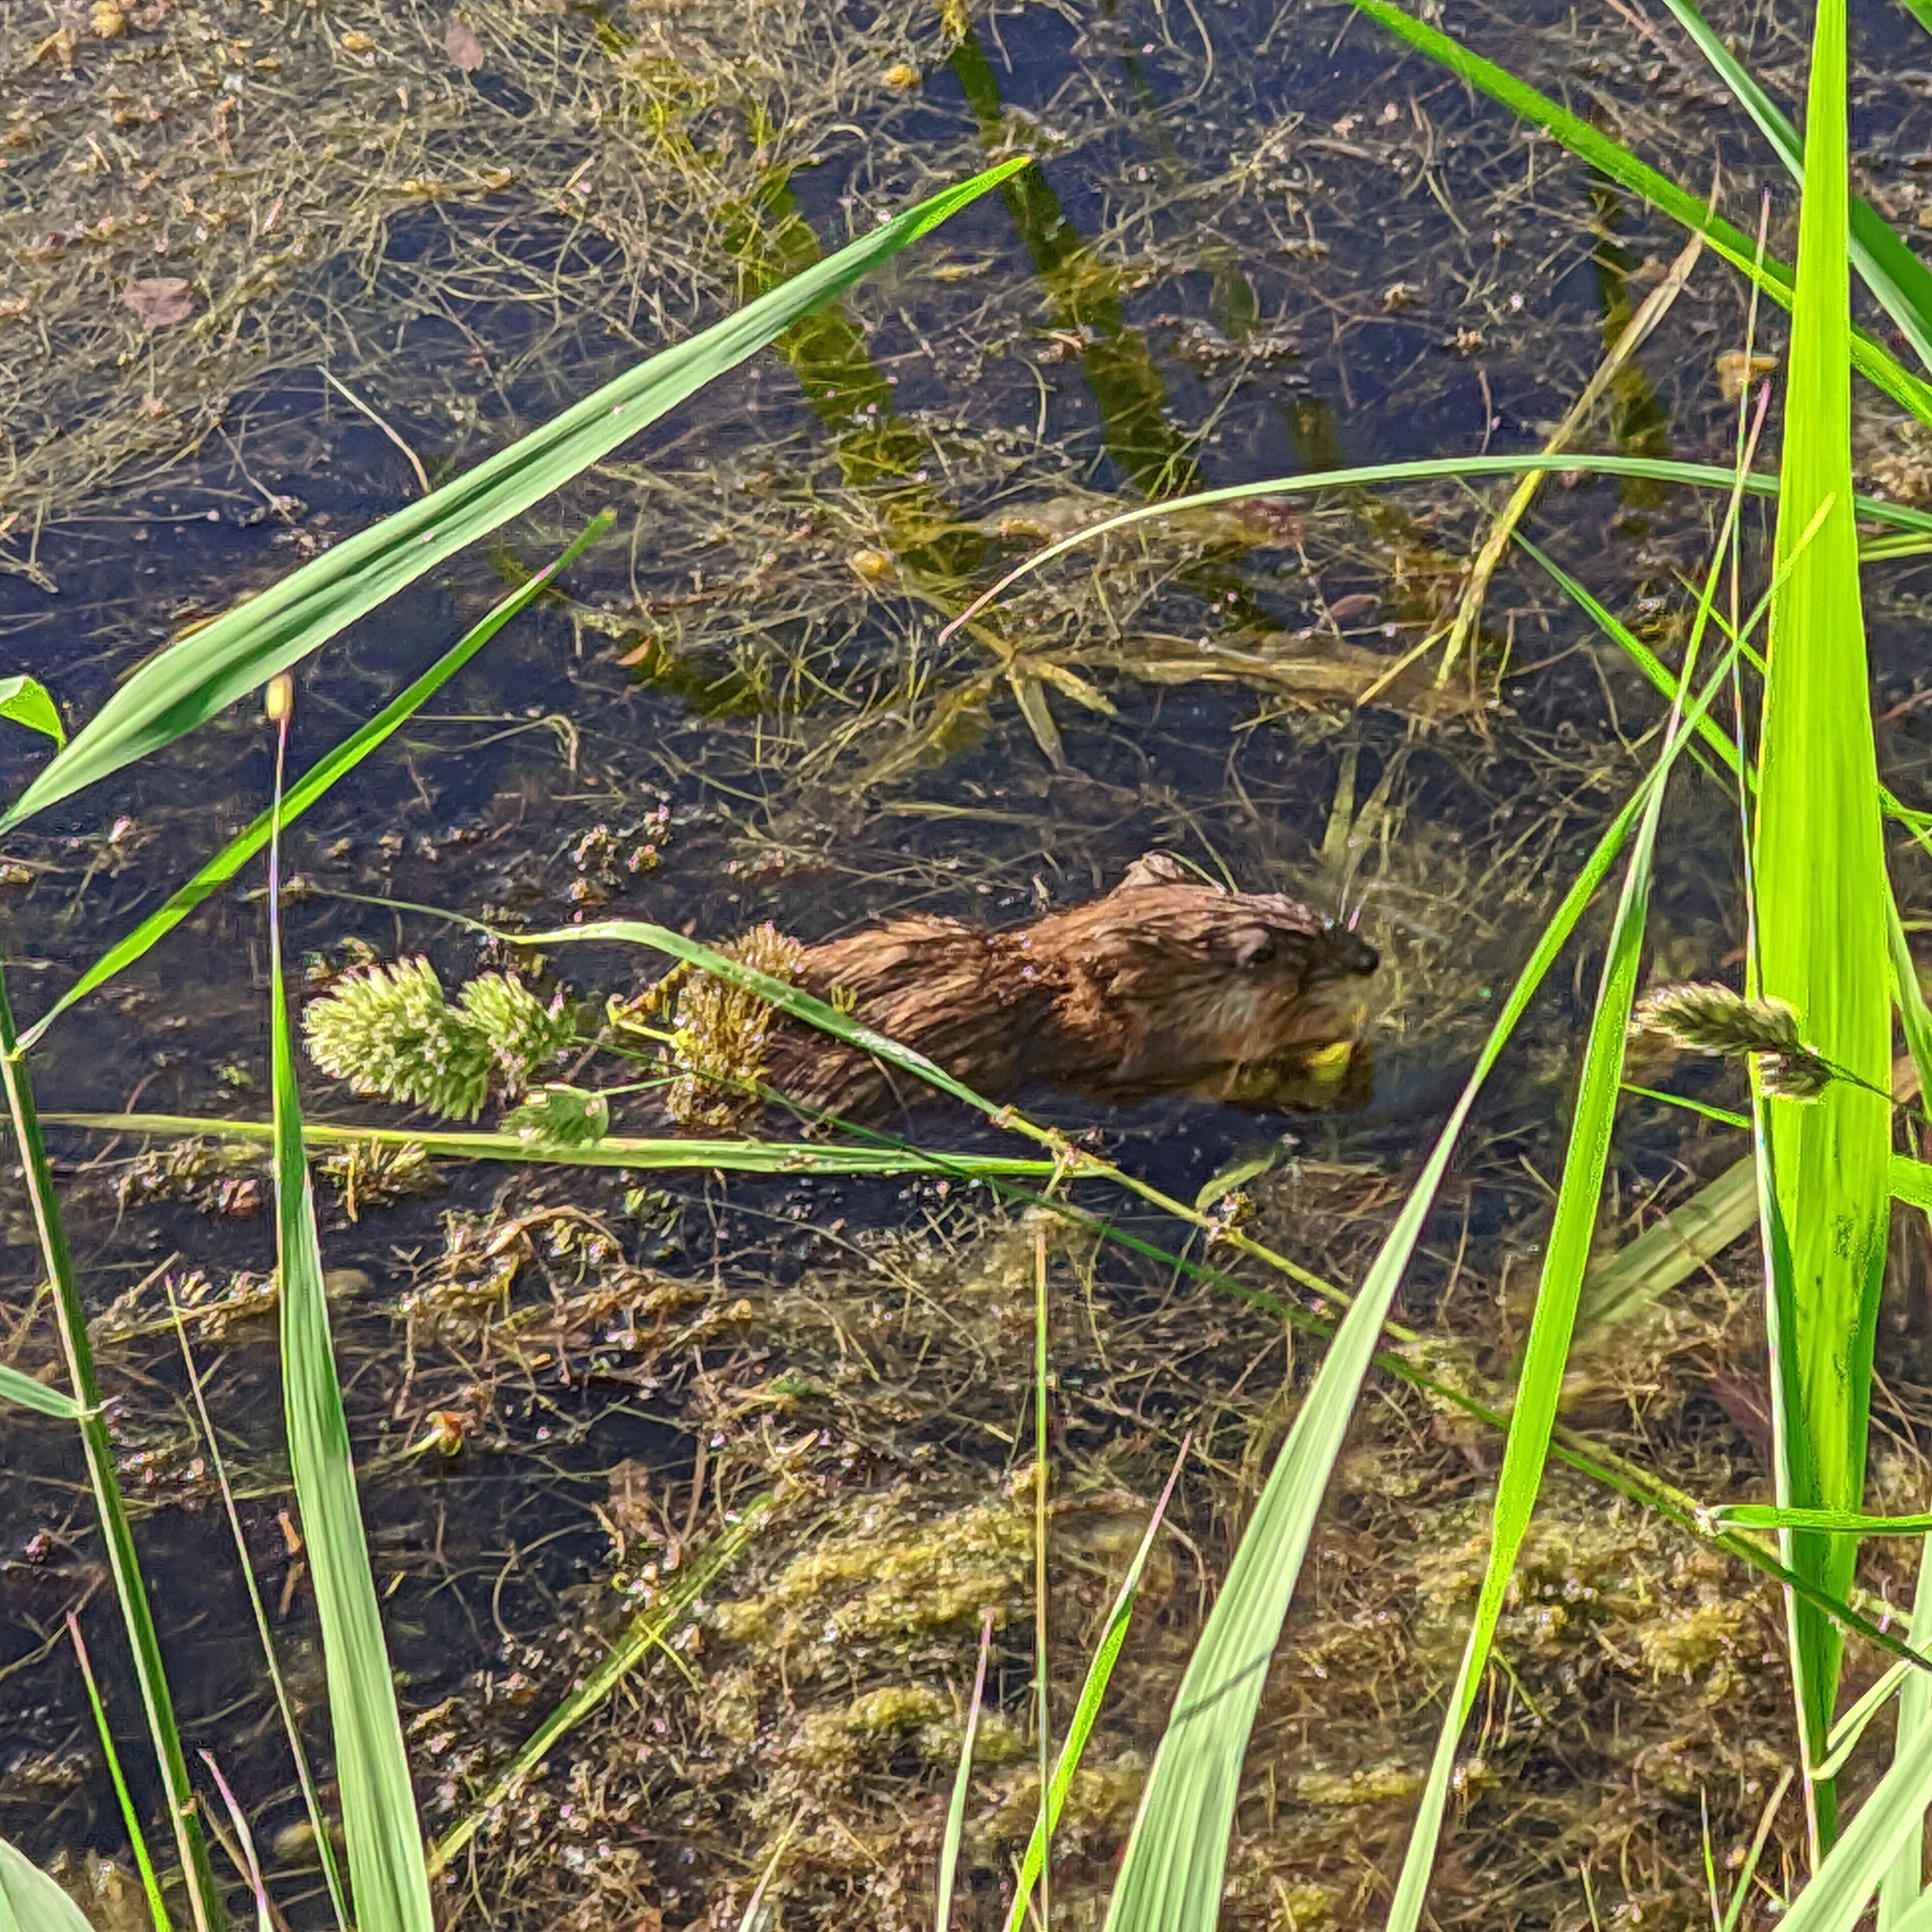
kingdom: Animalia
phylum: Chordata
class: Mammalia
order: Rodentia
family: Cricetidae
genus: Ondatra
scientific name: Ondatra zibethicus
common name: Muskrat
